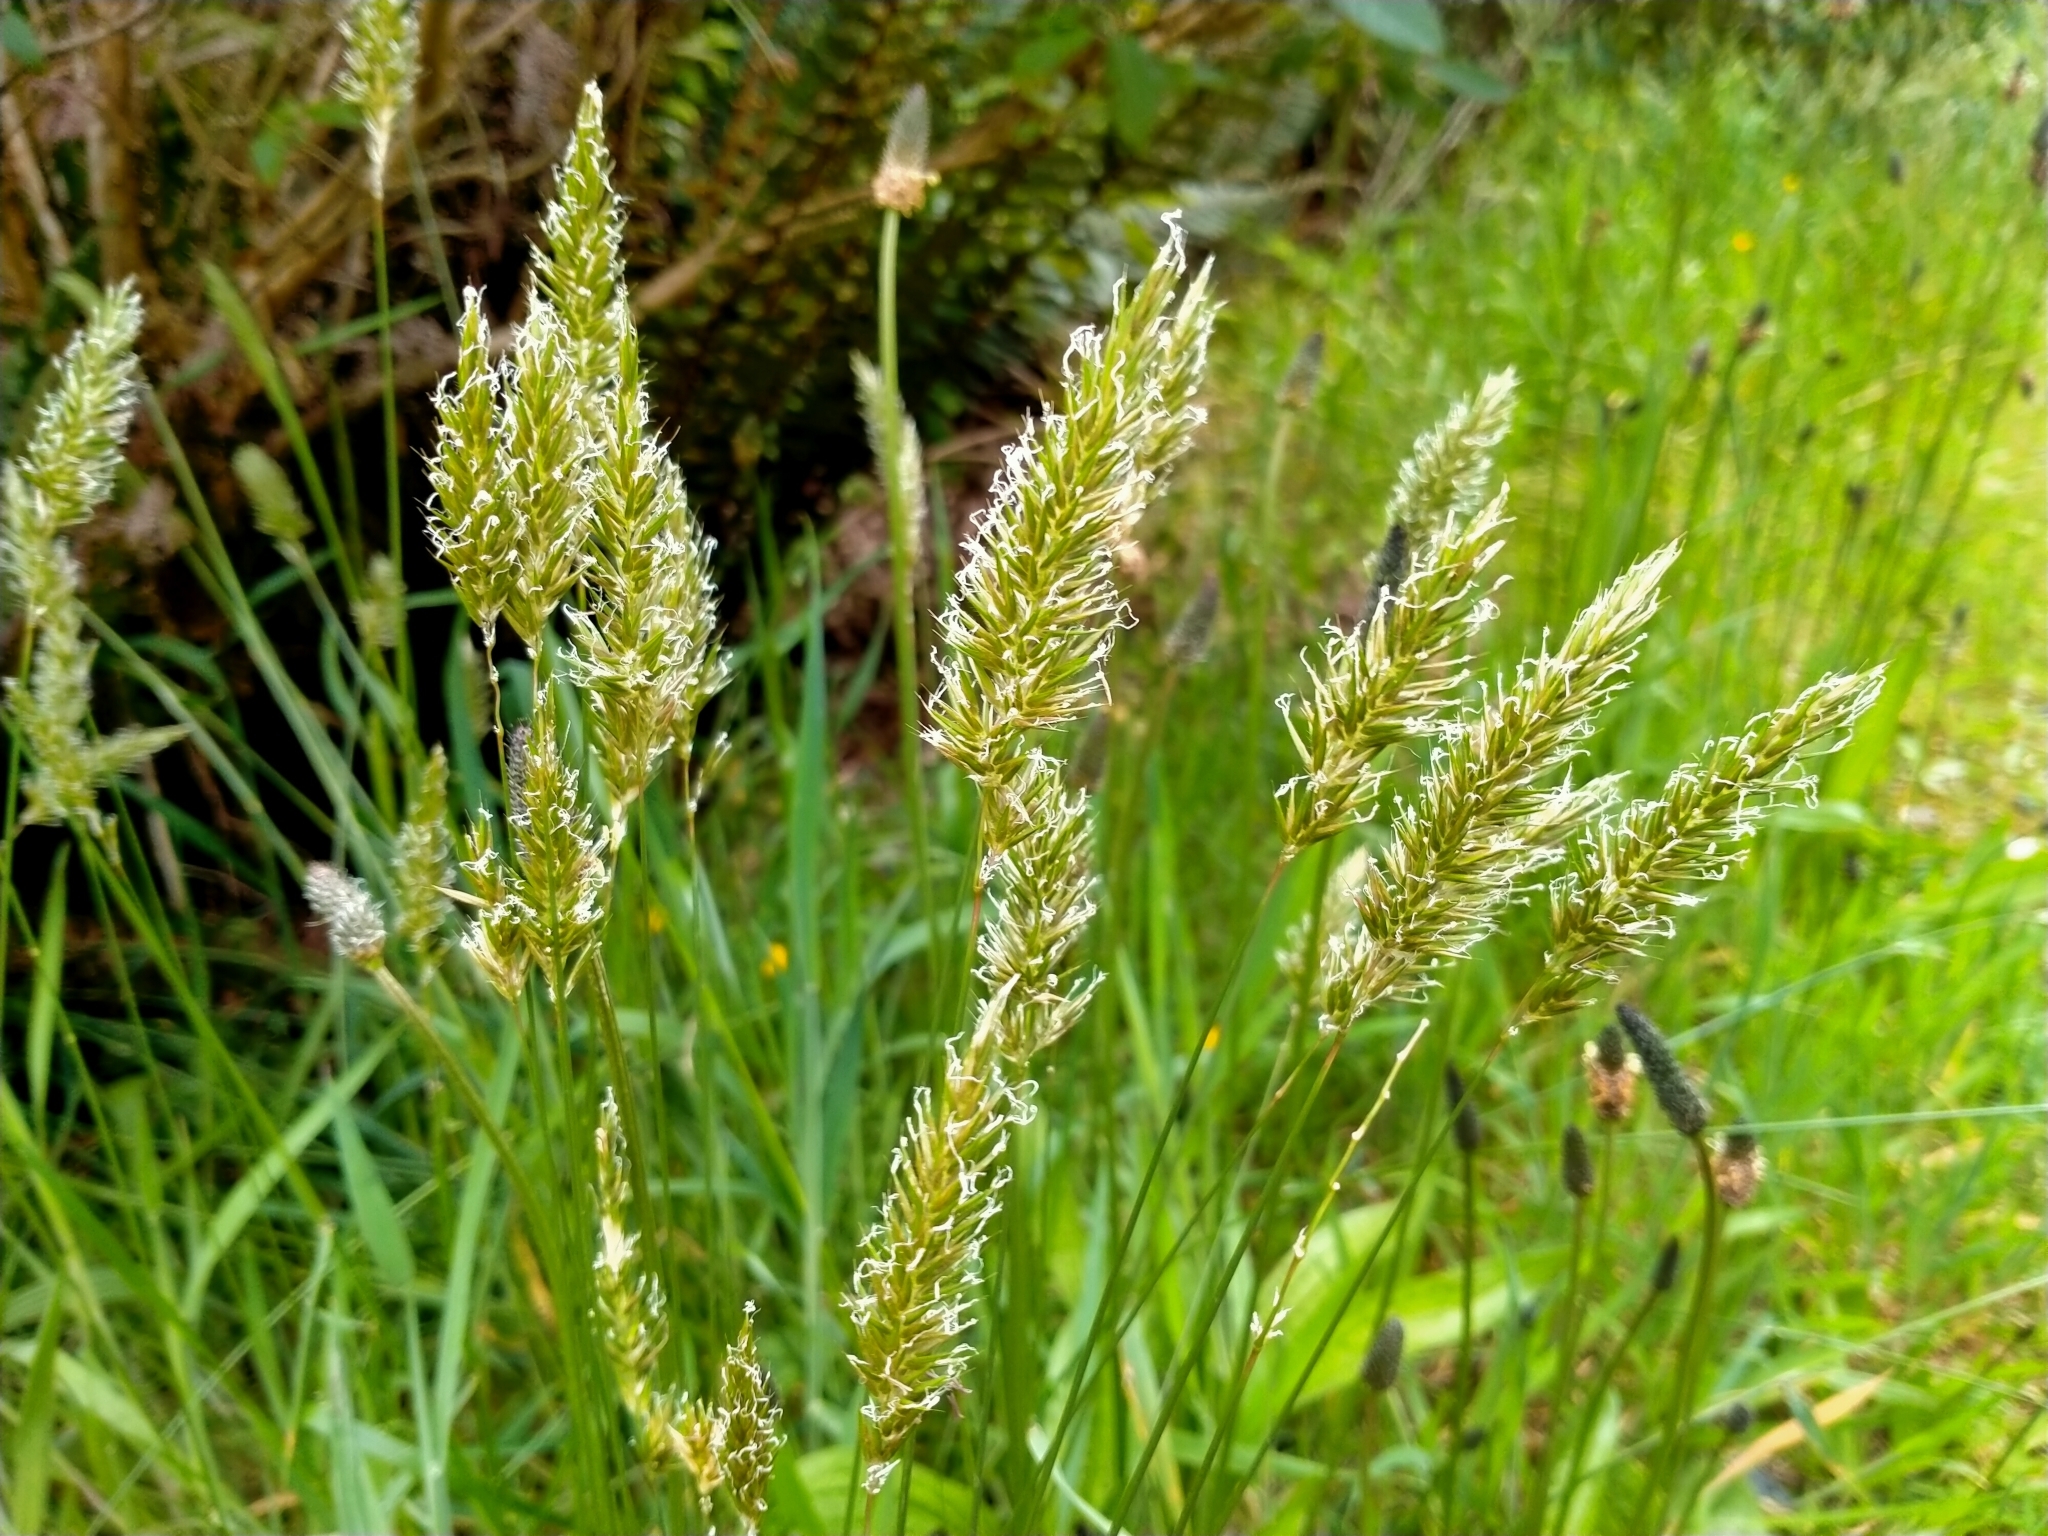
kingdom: Plantae
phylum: Tracheophyta
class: Liliopsida
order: Poales
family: Poaceae
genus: Anthoxanthum
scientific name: Anthoxanthum odoratum
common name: Sweet vernalgrass
